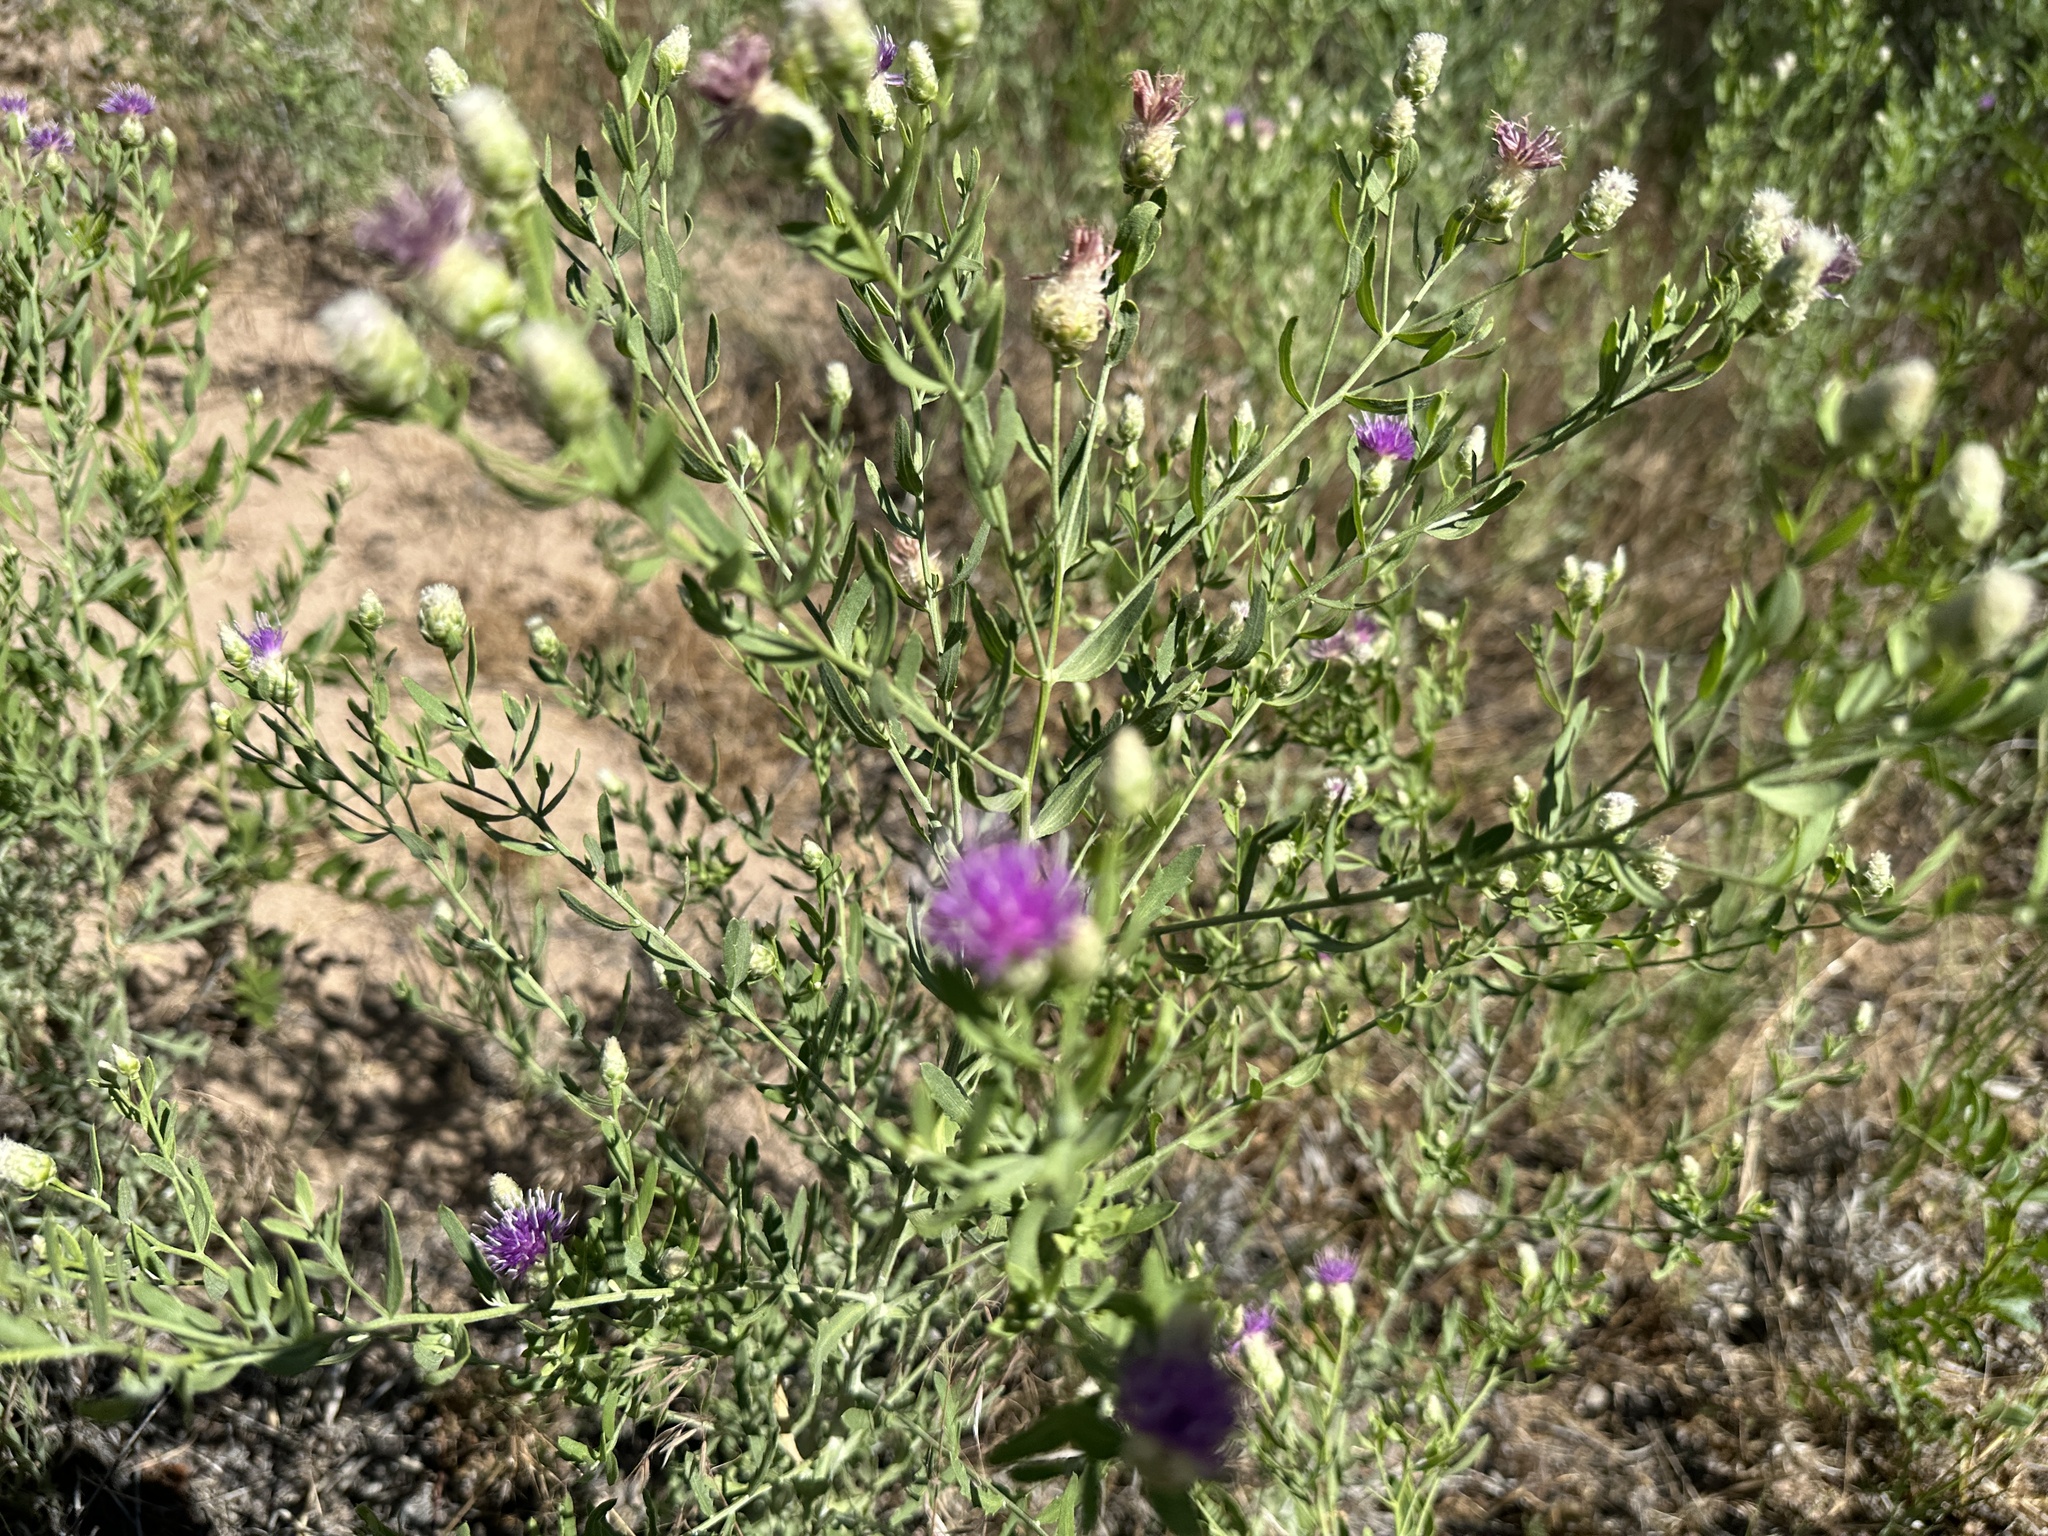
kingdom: Plantae
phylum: Tracheophyta
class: Magnoliopsida
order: Asterales
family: Asteraceae
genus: Leuzea
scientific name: Leuzea repens
